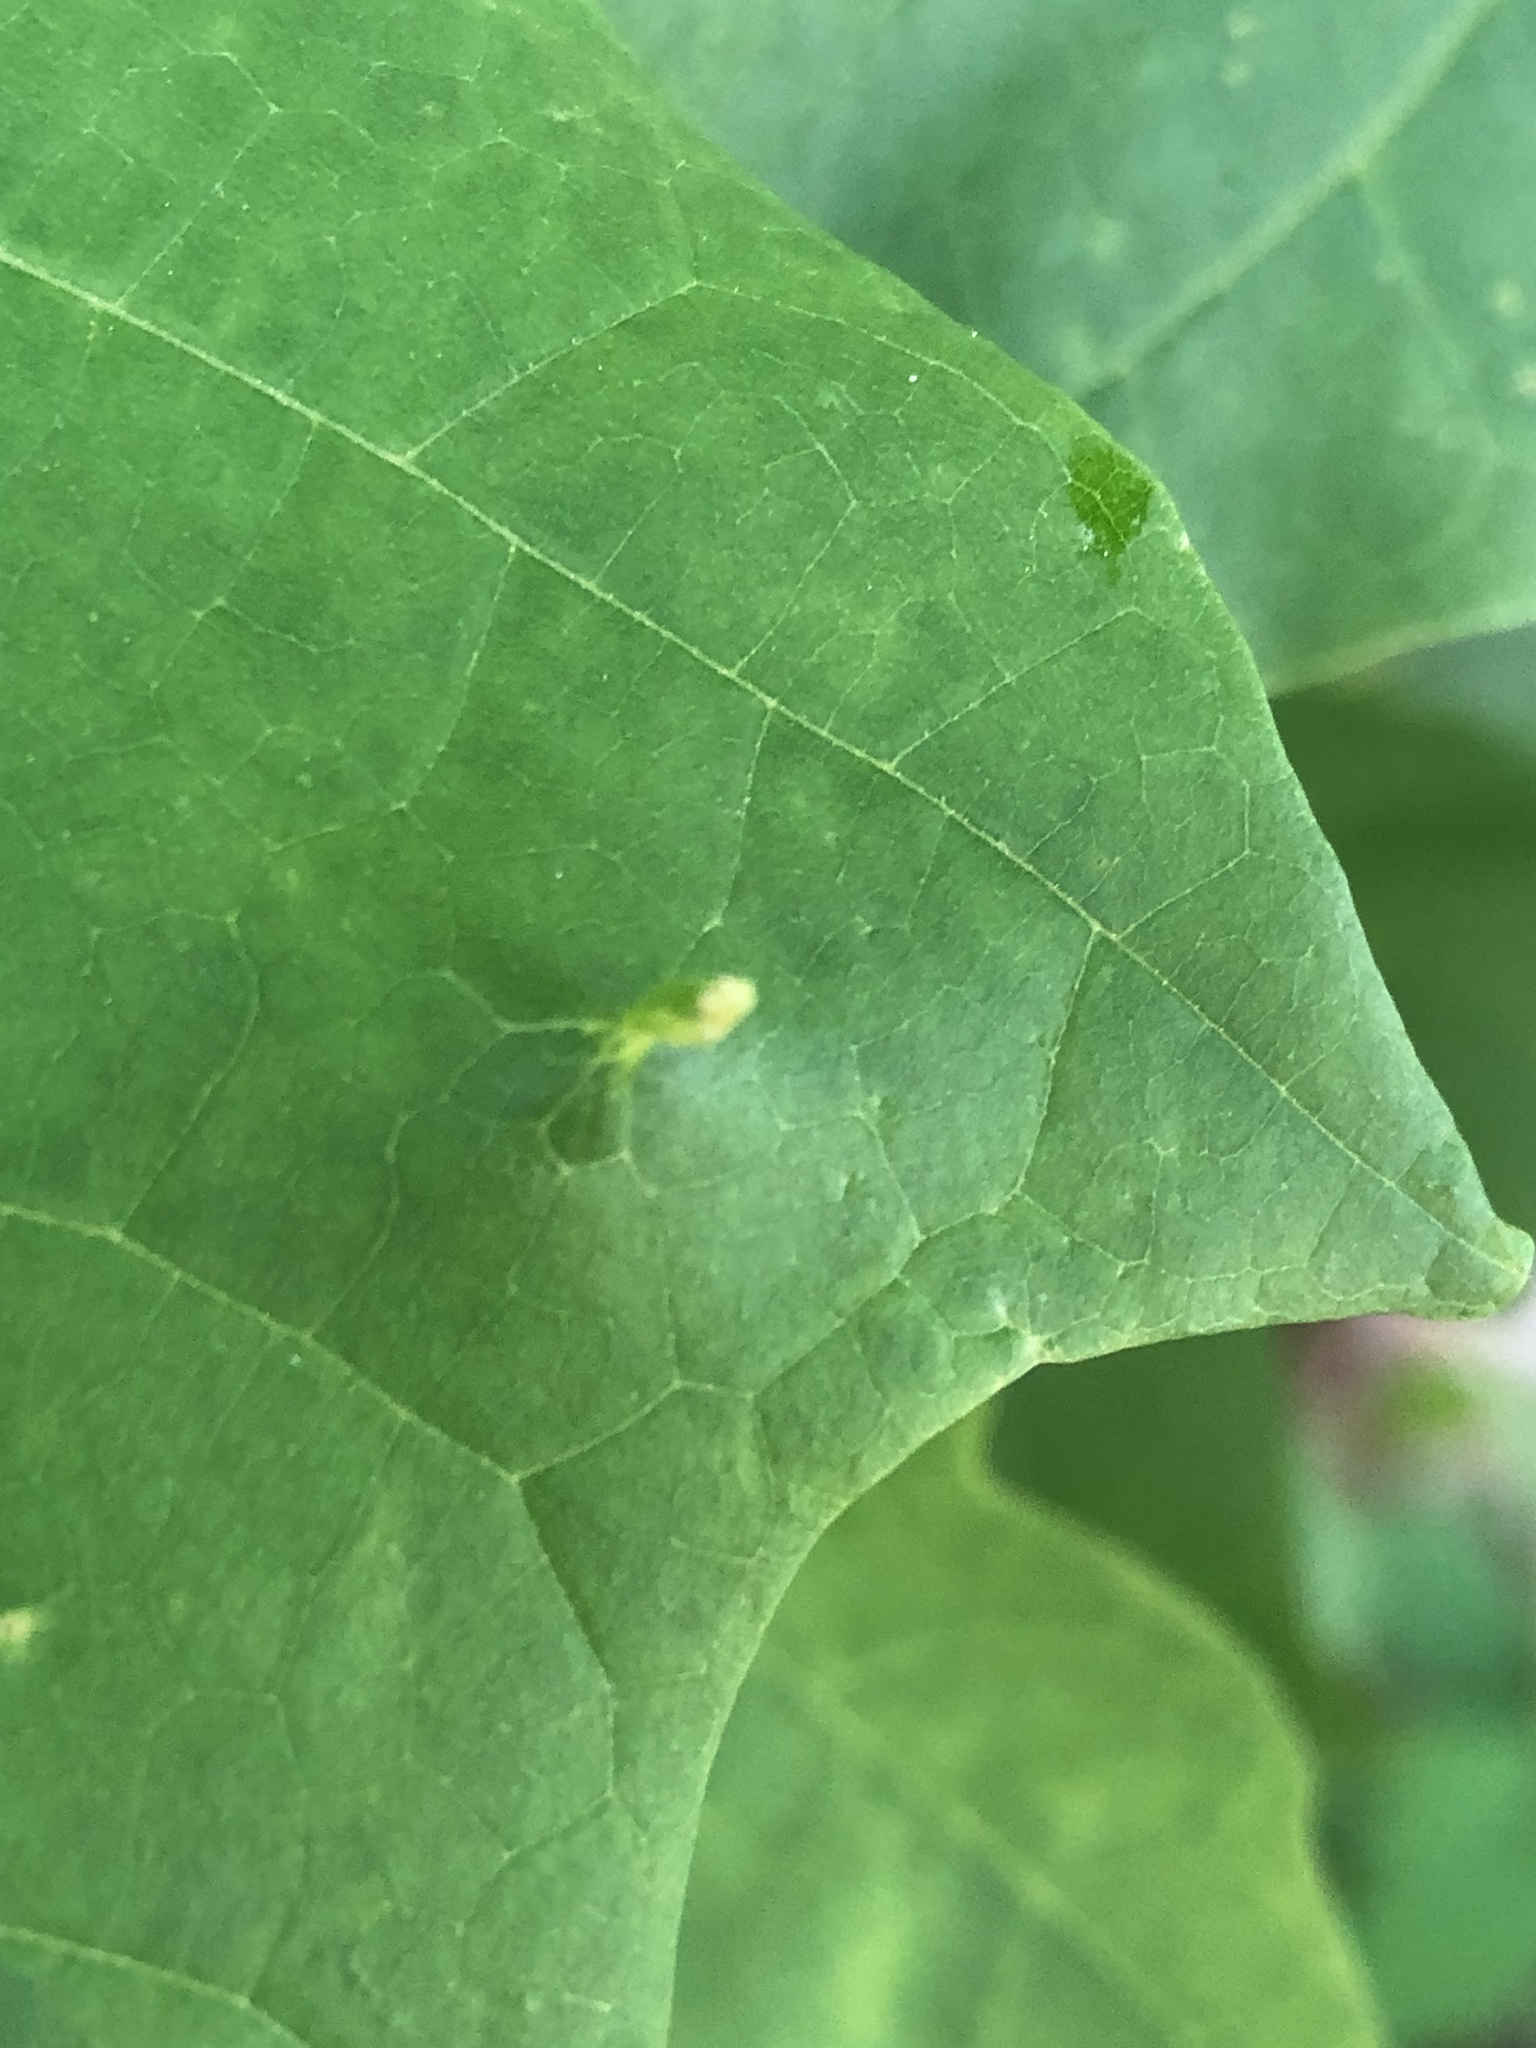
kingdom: Animalia
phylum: Arthropoda
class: Arachnida
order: Trombidiformes
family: Eriophyidae
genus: Vasates
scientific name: Vasates aceriscrumena
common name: Maple spindle gall mite
